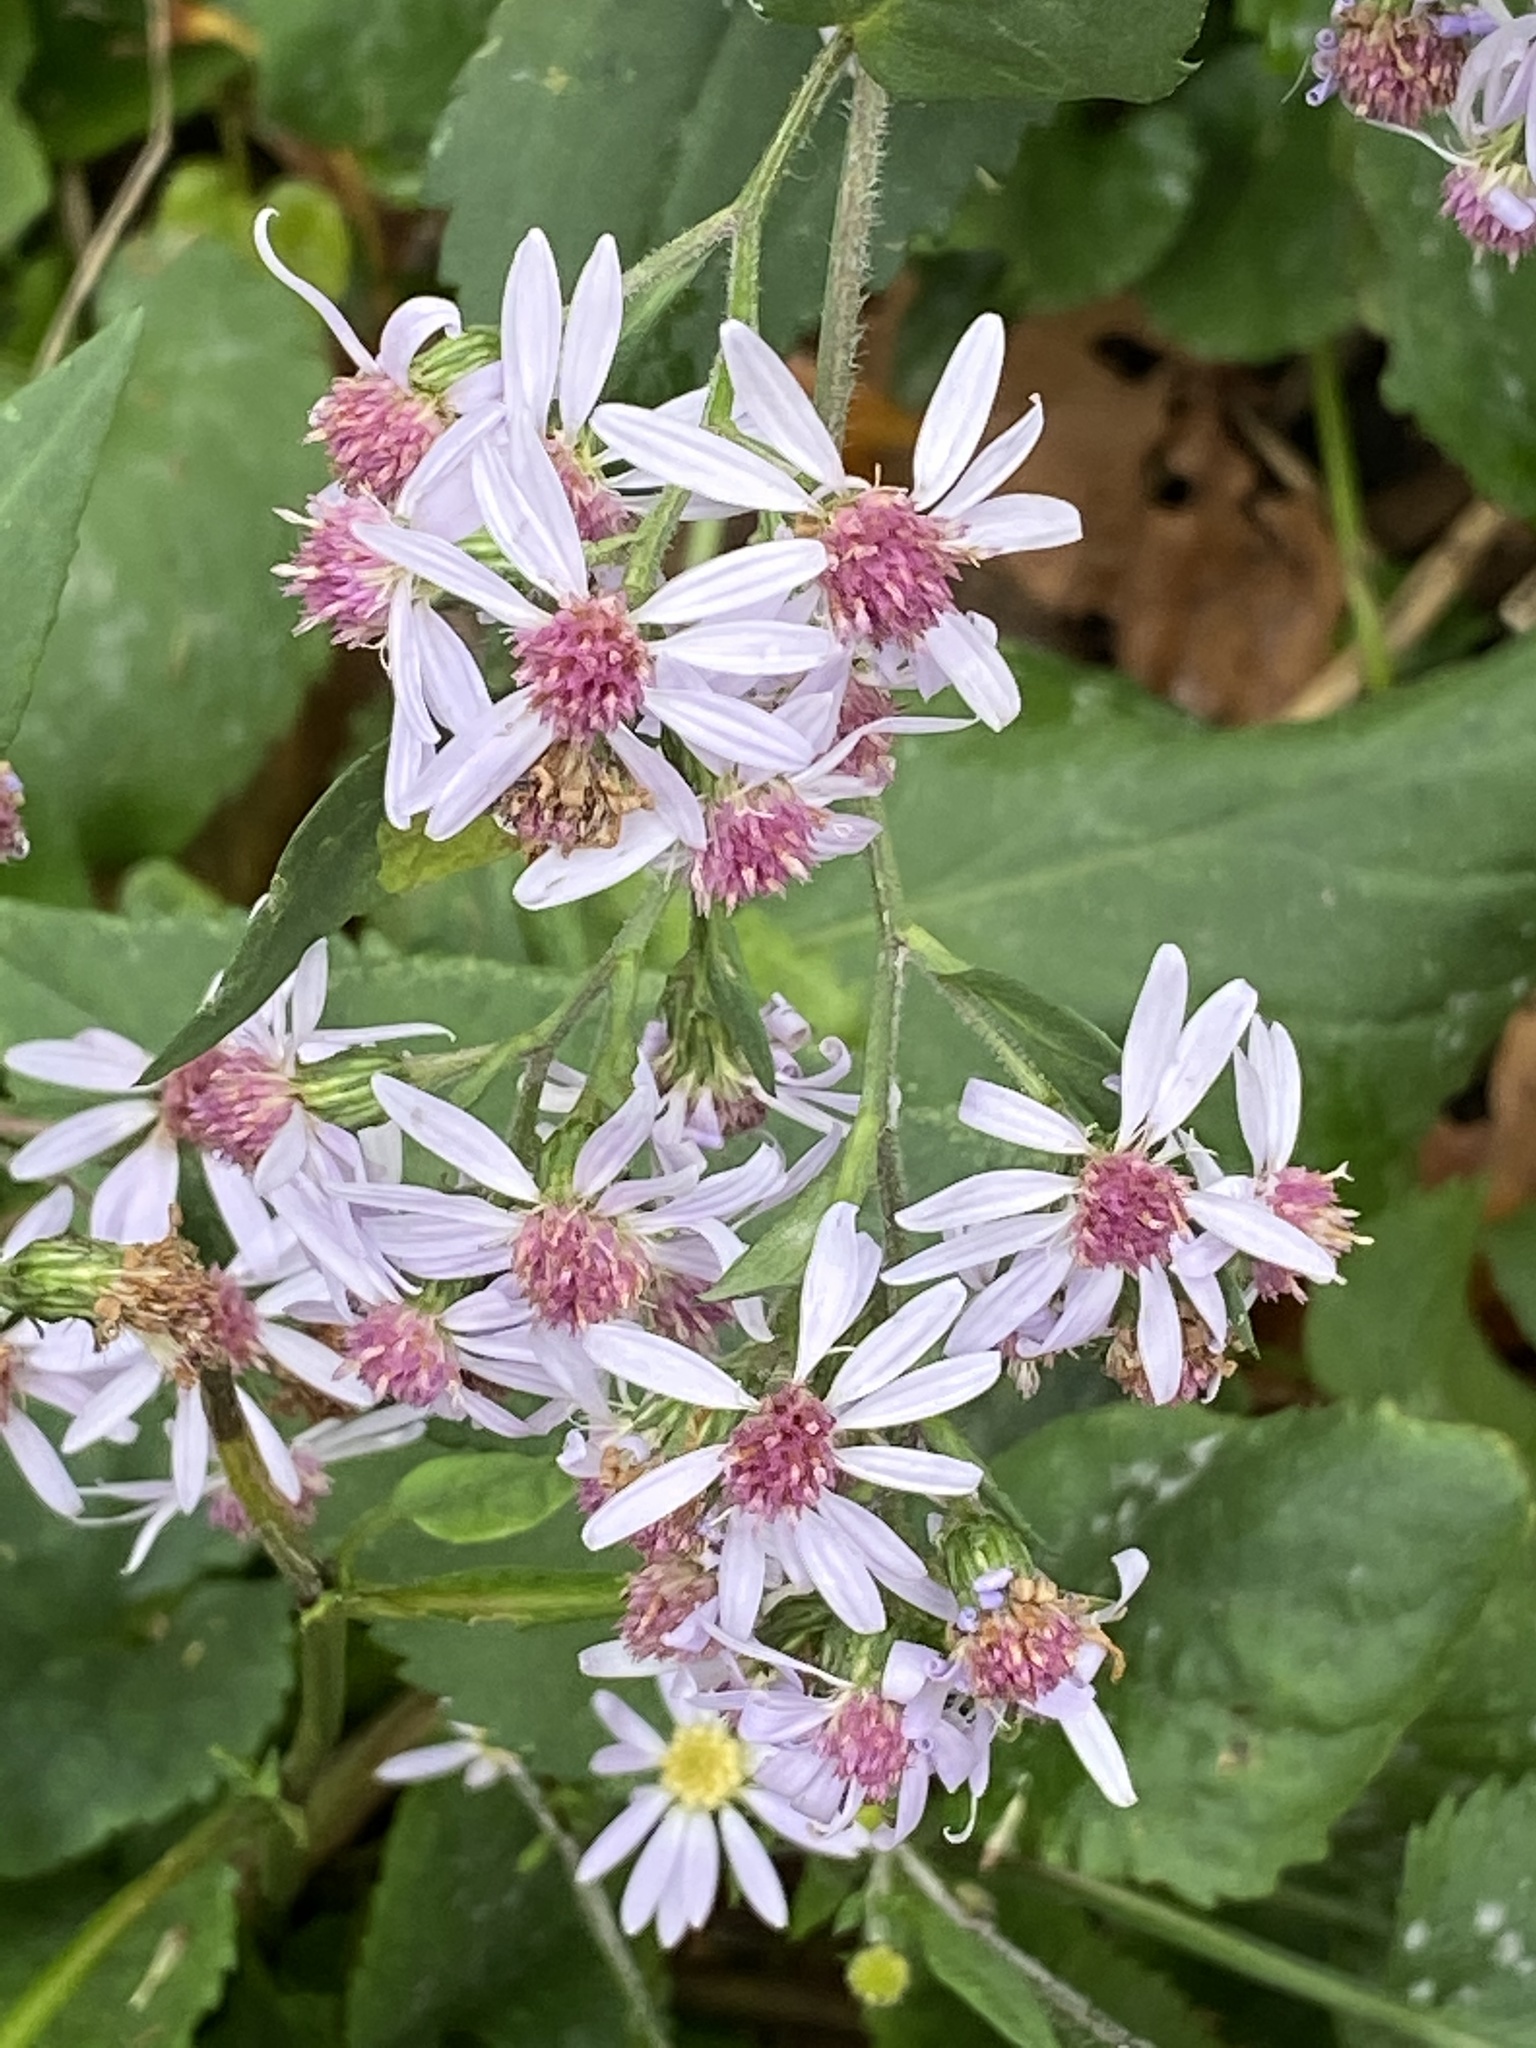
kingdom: Plantae
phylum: Tracheophyta
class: Magnoliopsida
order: Asterales
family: Asteraceae
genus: Symphyotrichum
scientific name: Symphyotrichum cordifolium
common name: Beeweed
